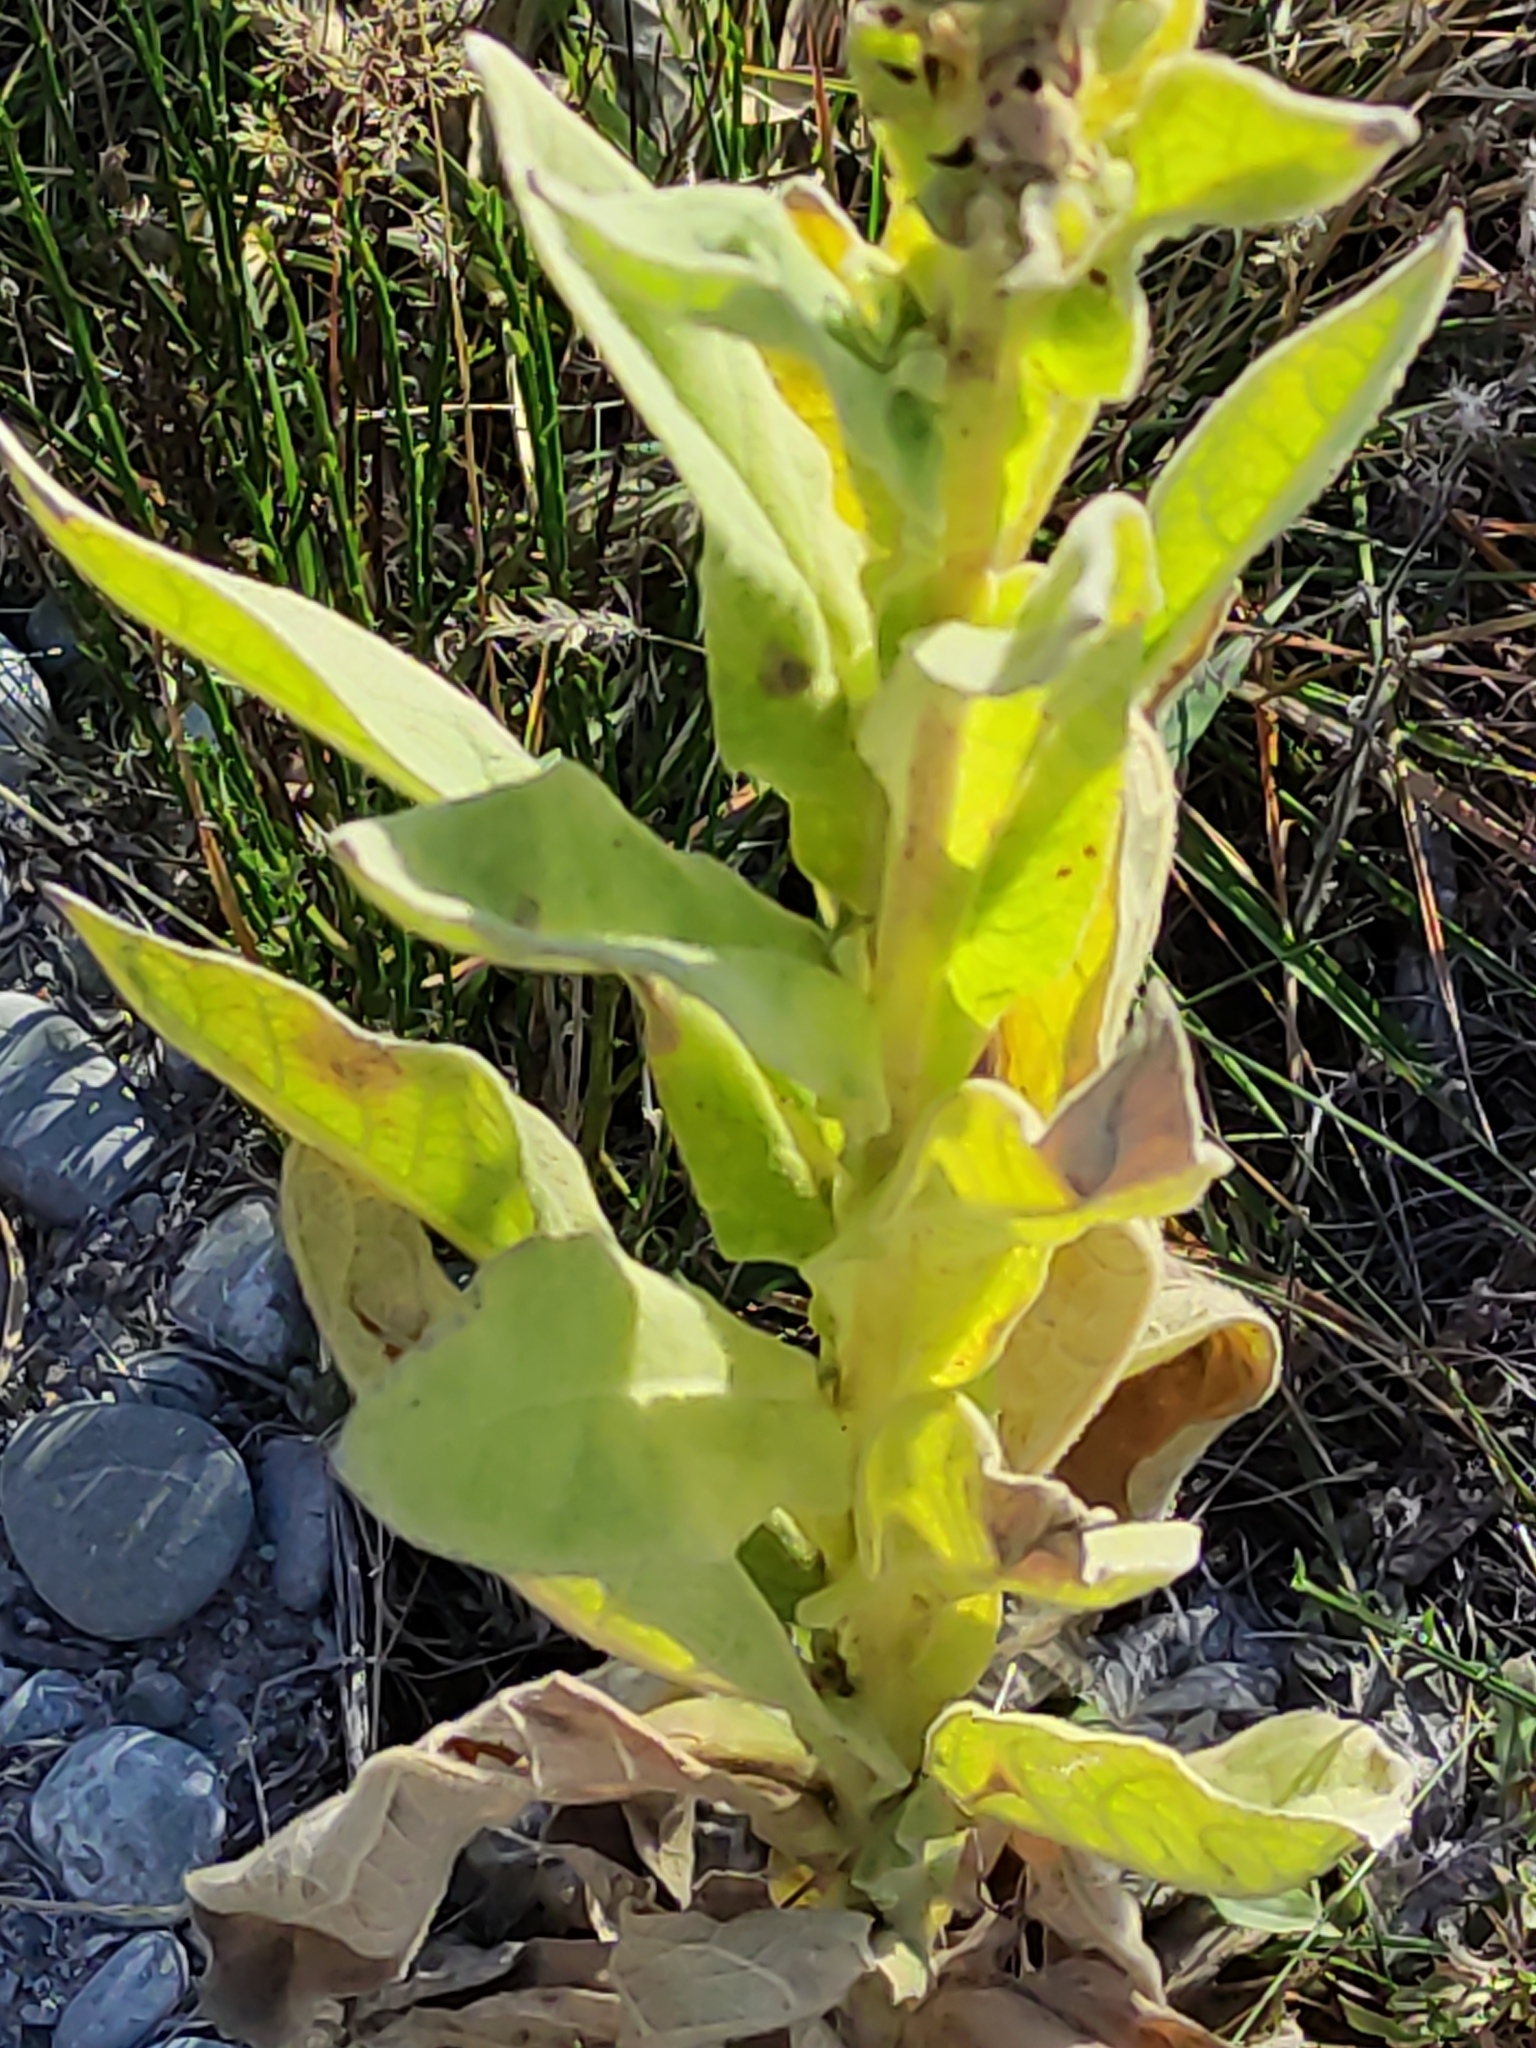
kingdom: Plantae
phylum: Tracheophyta
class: Magnoliopsida
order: Lamiales
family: Scrophulariaceae
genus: Verbascum
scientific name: Verbascum thapsus
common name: Common mullein
